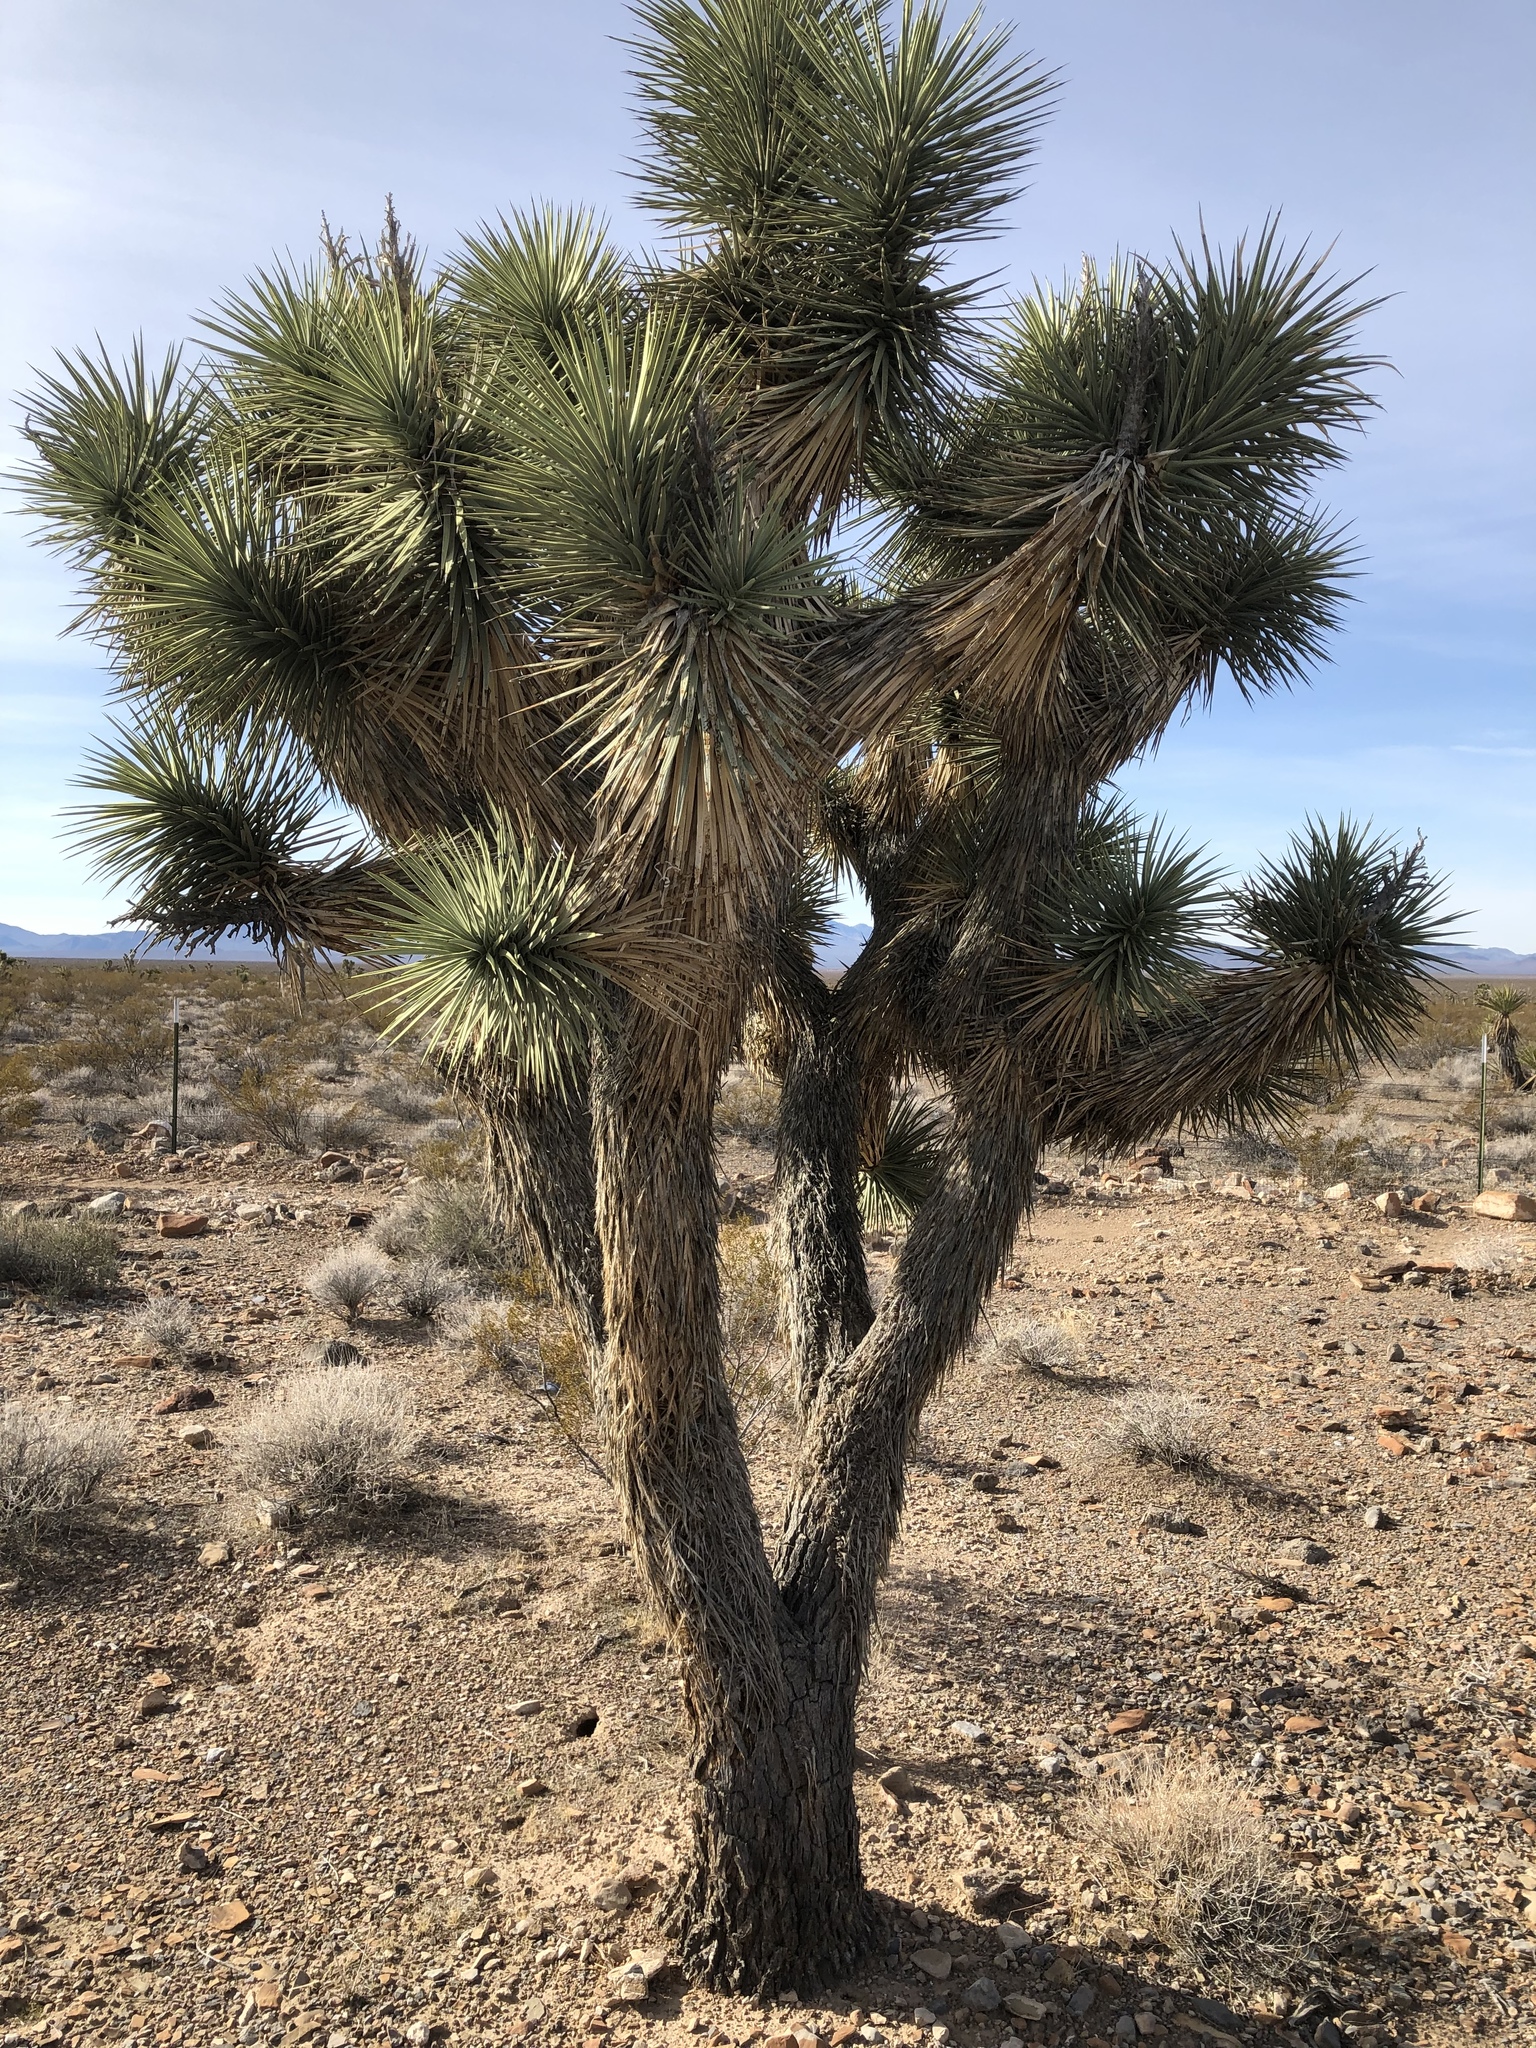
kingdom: Plantae
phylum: Tracheophyta
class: Liliopsida
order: Asparagales
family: Asparagaceae
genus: Yucca
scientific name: Yucca brevifolia
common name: Joshua tree
